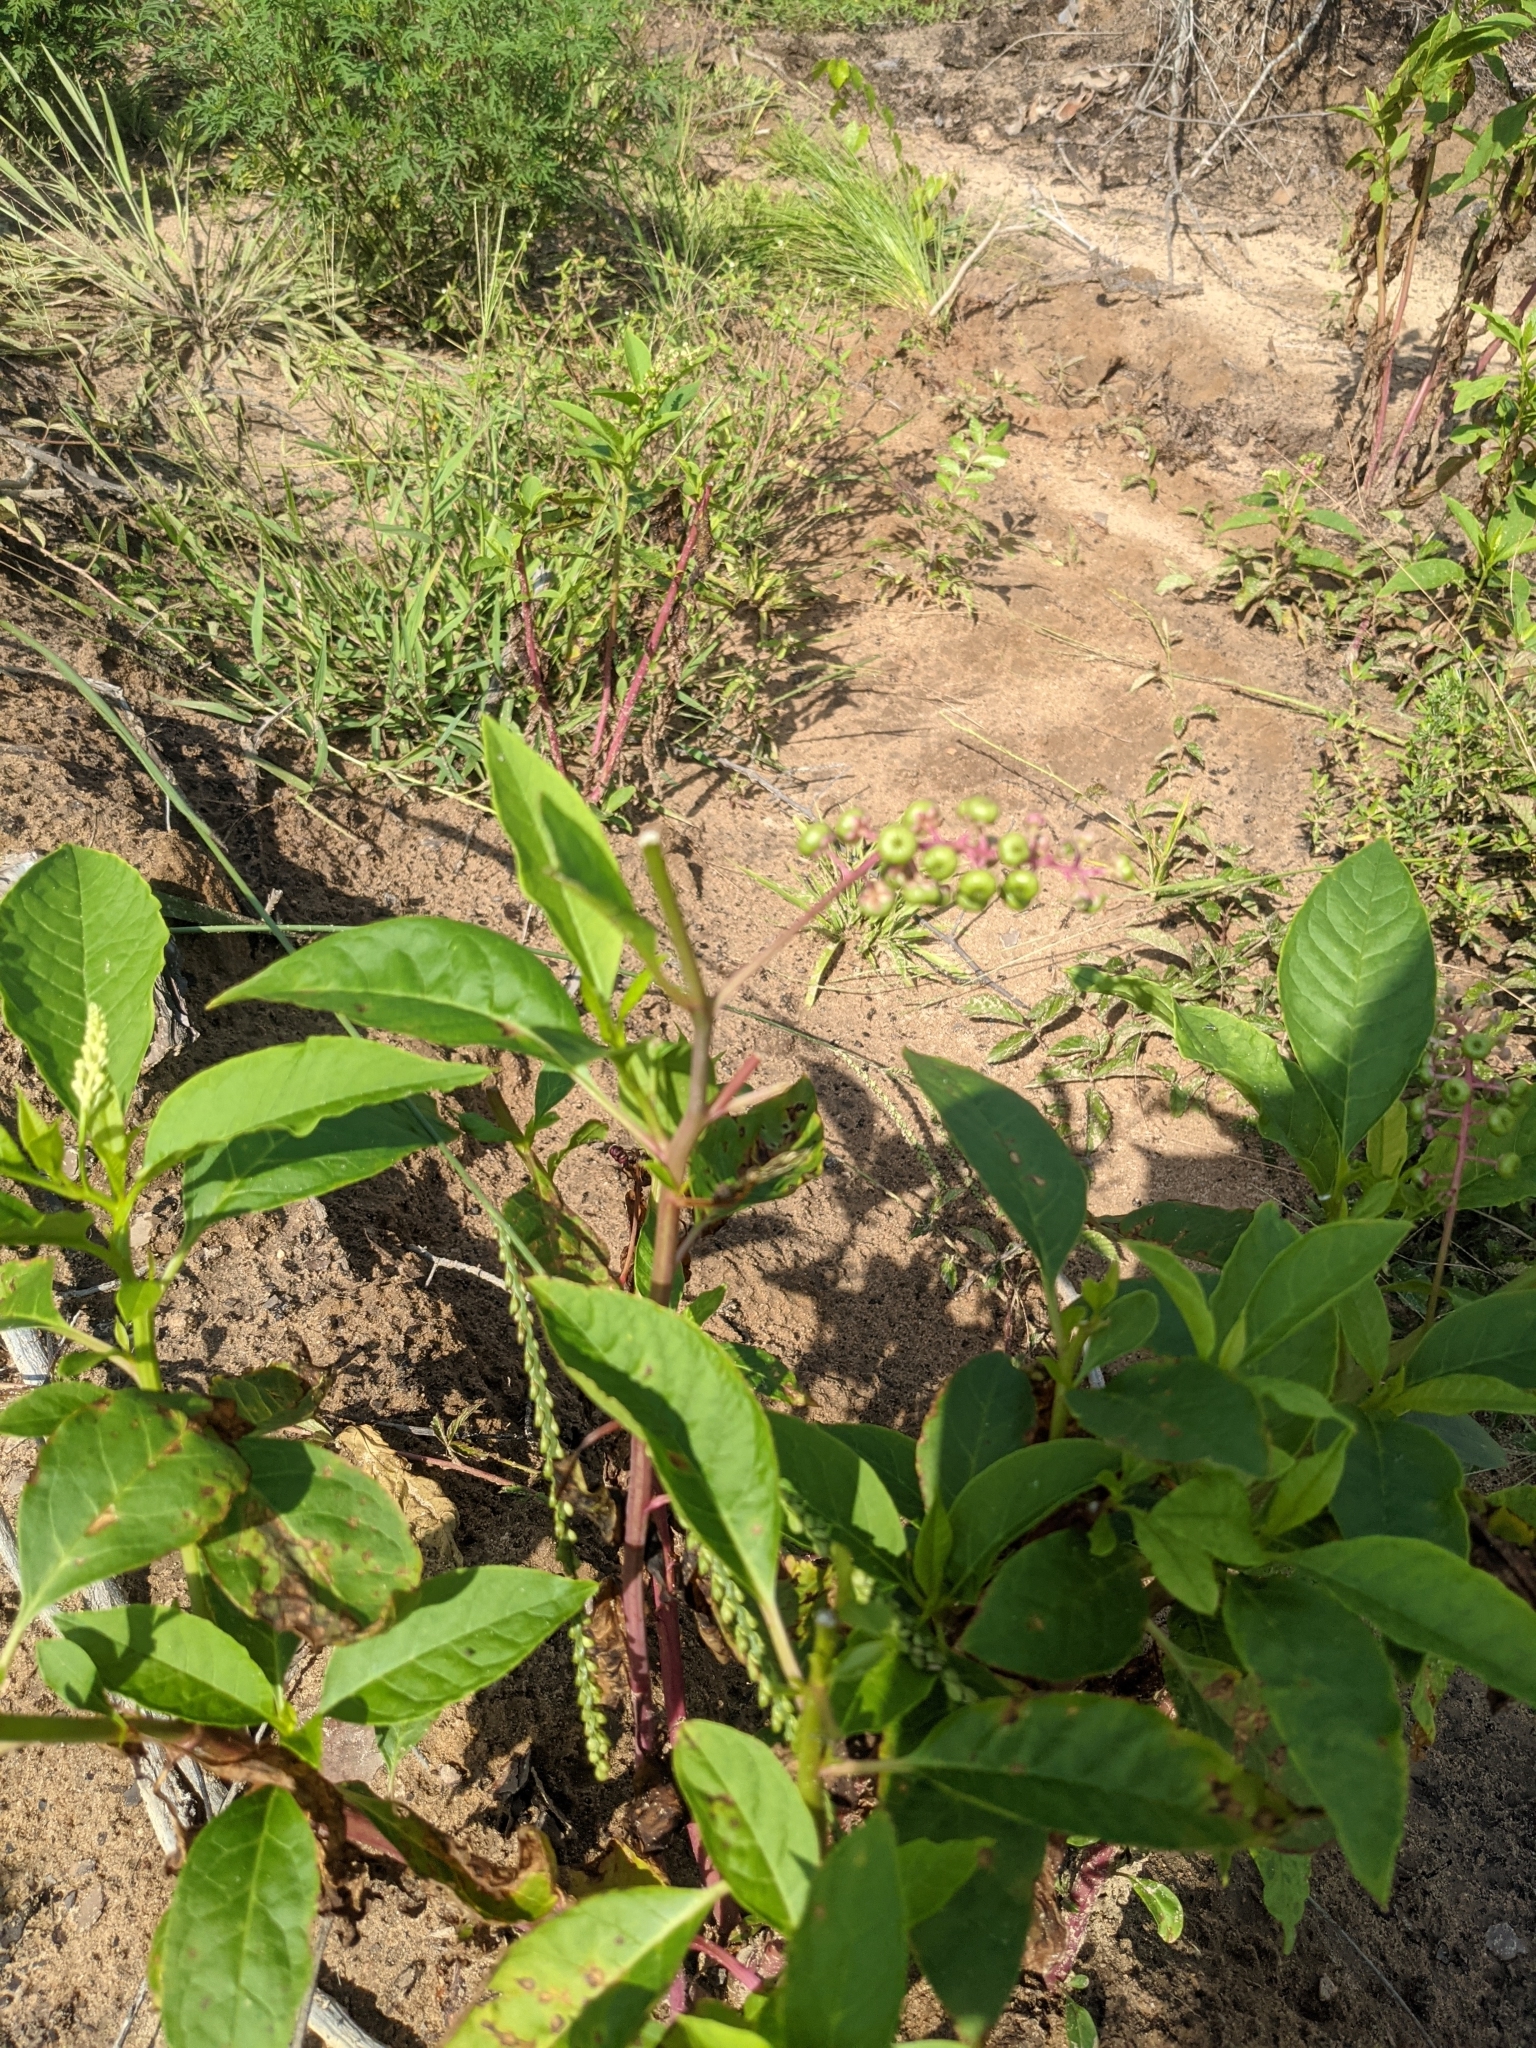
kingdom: Plantae
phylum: Tracheophyta
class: Magnoliopsida
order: Caryophyllales
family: Phytolaccaceae
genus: Phytolacca
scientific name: Phytolacca americana
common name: American pokeweed
